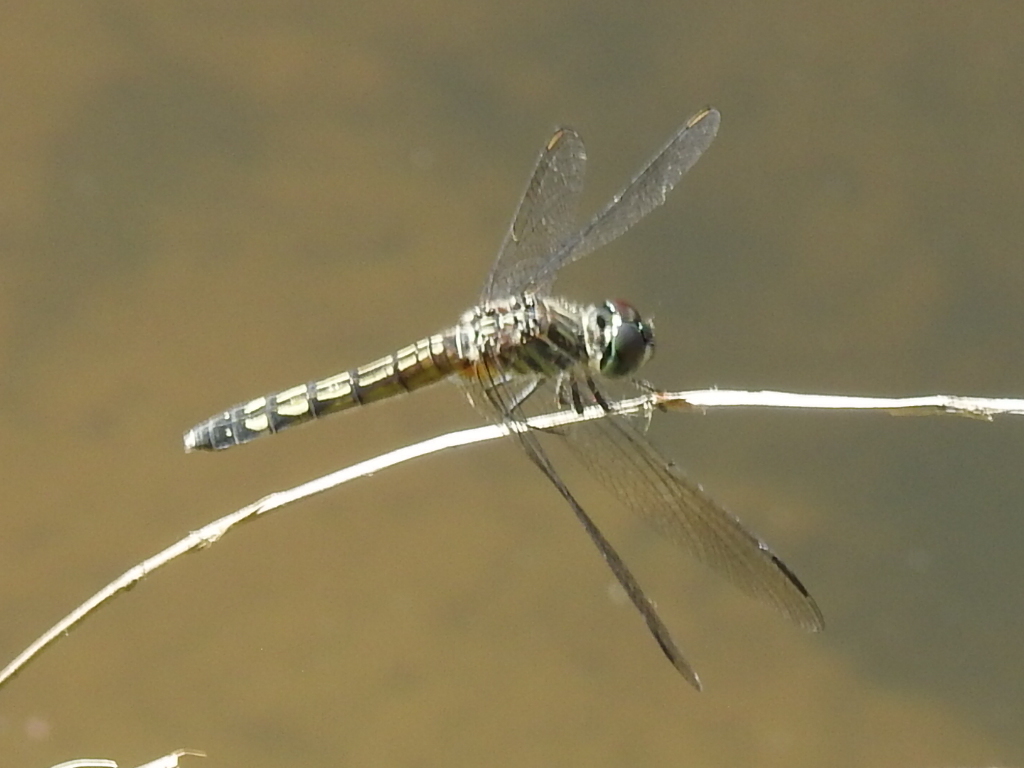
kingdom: Animalia
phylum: Arthropoda
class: Insecta
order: Odonata
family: Libellulidae
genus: Pachydiplax
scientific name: Pachydiplax longipennis
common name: Blue dasher
